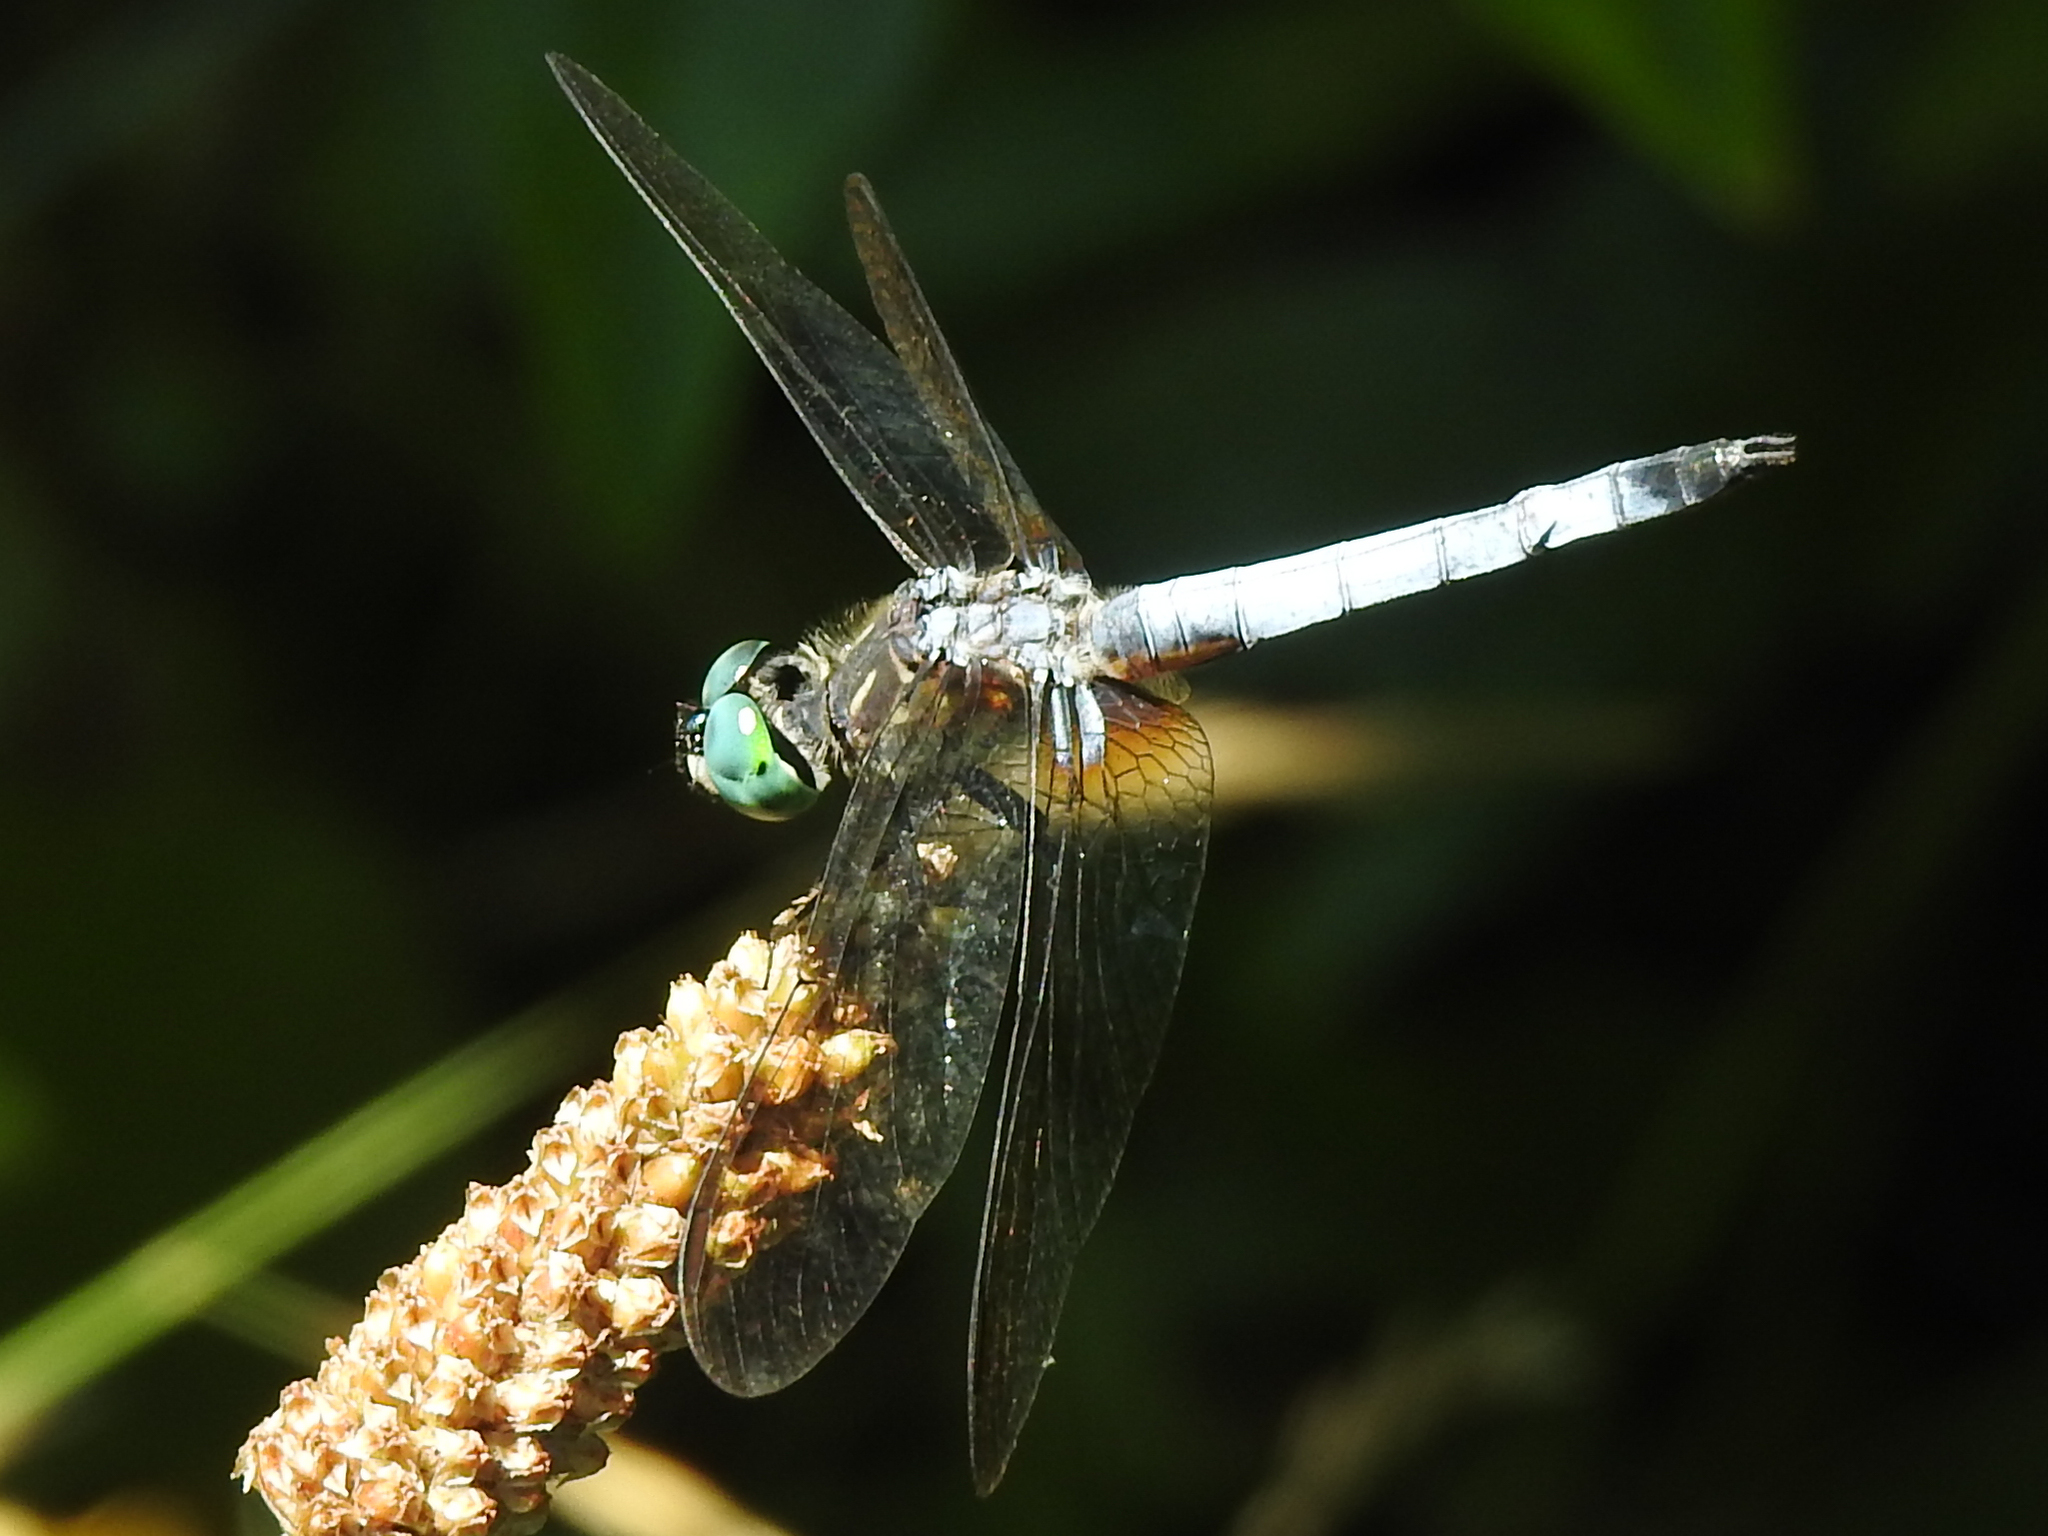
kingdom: Animalia
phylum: Arthropoda
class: Insecta
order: Odonata
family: Libellulidae
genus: Pachydiplax
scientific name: Pachydiplax longipennis
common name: Blue dasher
